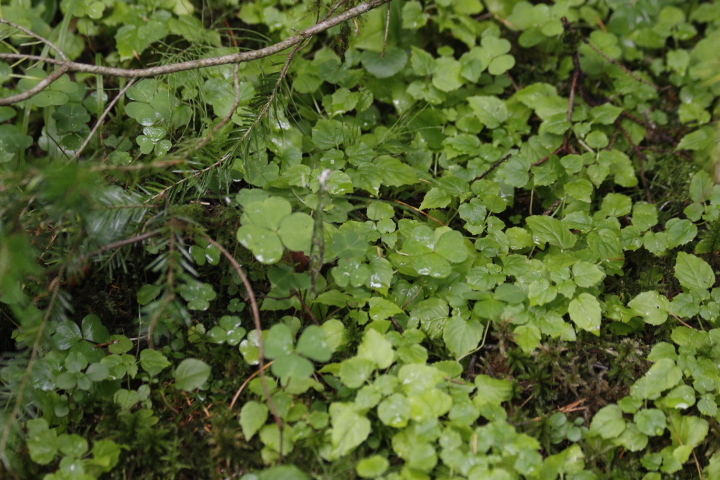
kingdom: Plantae
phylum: Tracheophyta
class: Magnoliopsida
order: Myrtales
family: Onagraceae
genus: Circaea
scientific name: Circaea alpina
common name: Alpine enchanter's-nightshade
